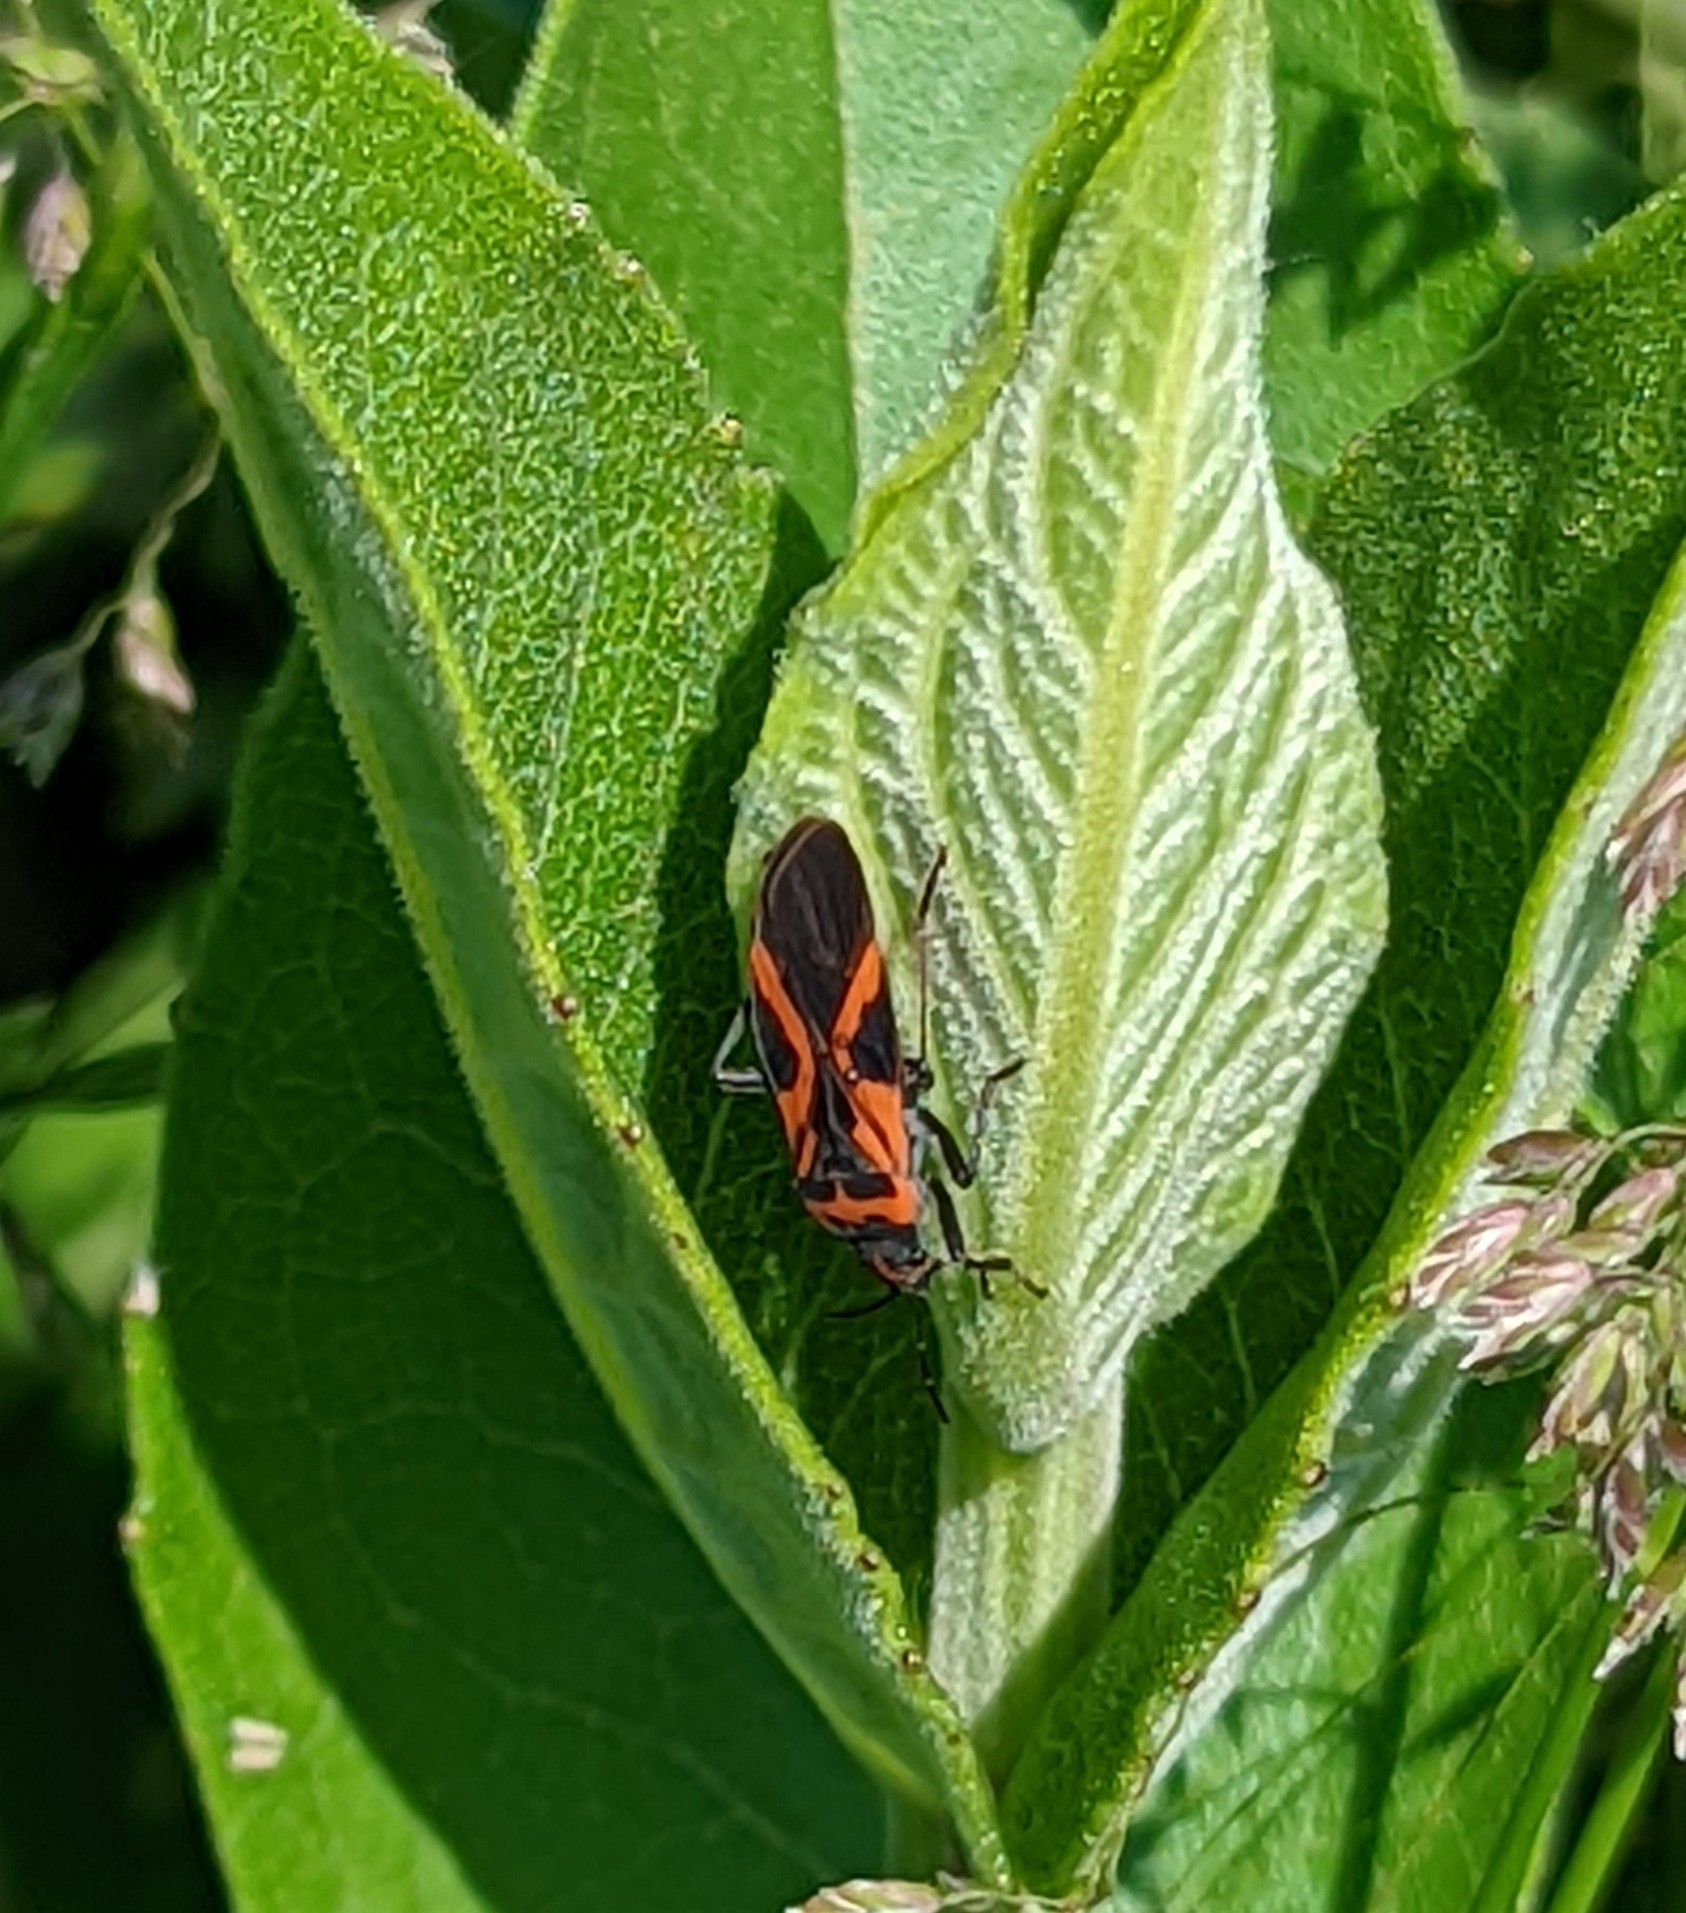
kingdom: Animalia
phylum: Arthropoda
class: Insecta
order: Hemiptera
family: Lygaeidae
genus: Lygaeus
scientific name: Lygaeus turcicus
